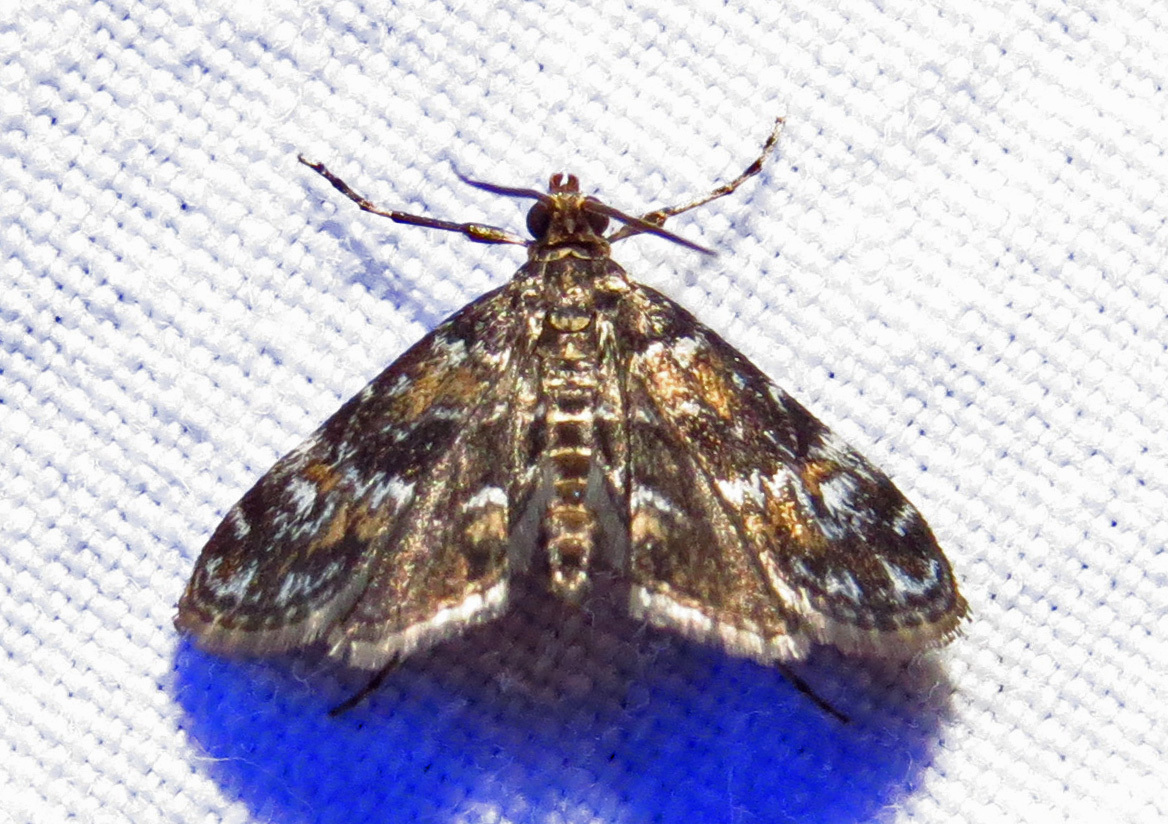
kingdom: Animalia
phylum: Arthropoda
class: Insecta
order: Lepidoptera
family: Crambidae
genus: Elophila
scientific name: Elophila obliteralis
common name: Waterlily leafcutter moth
